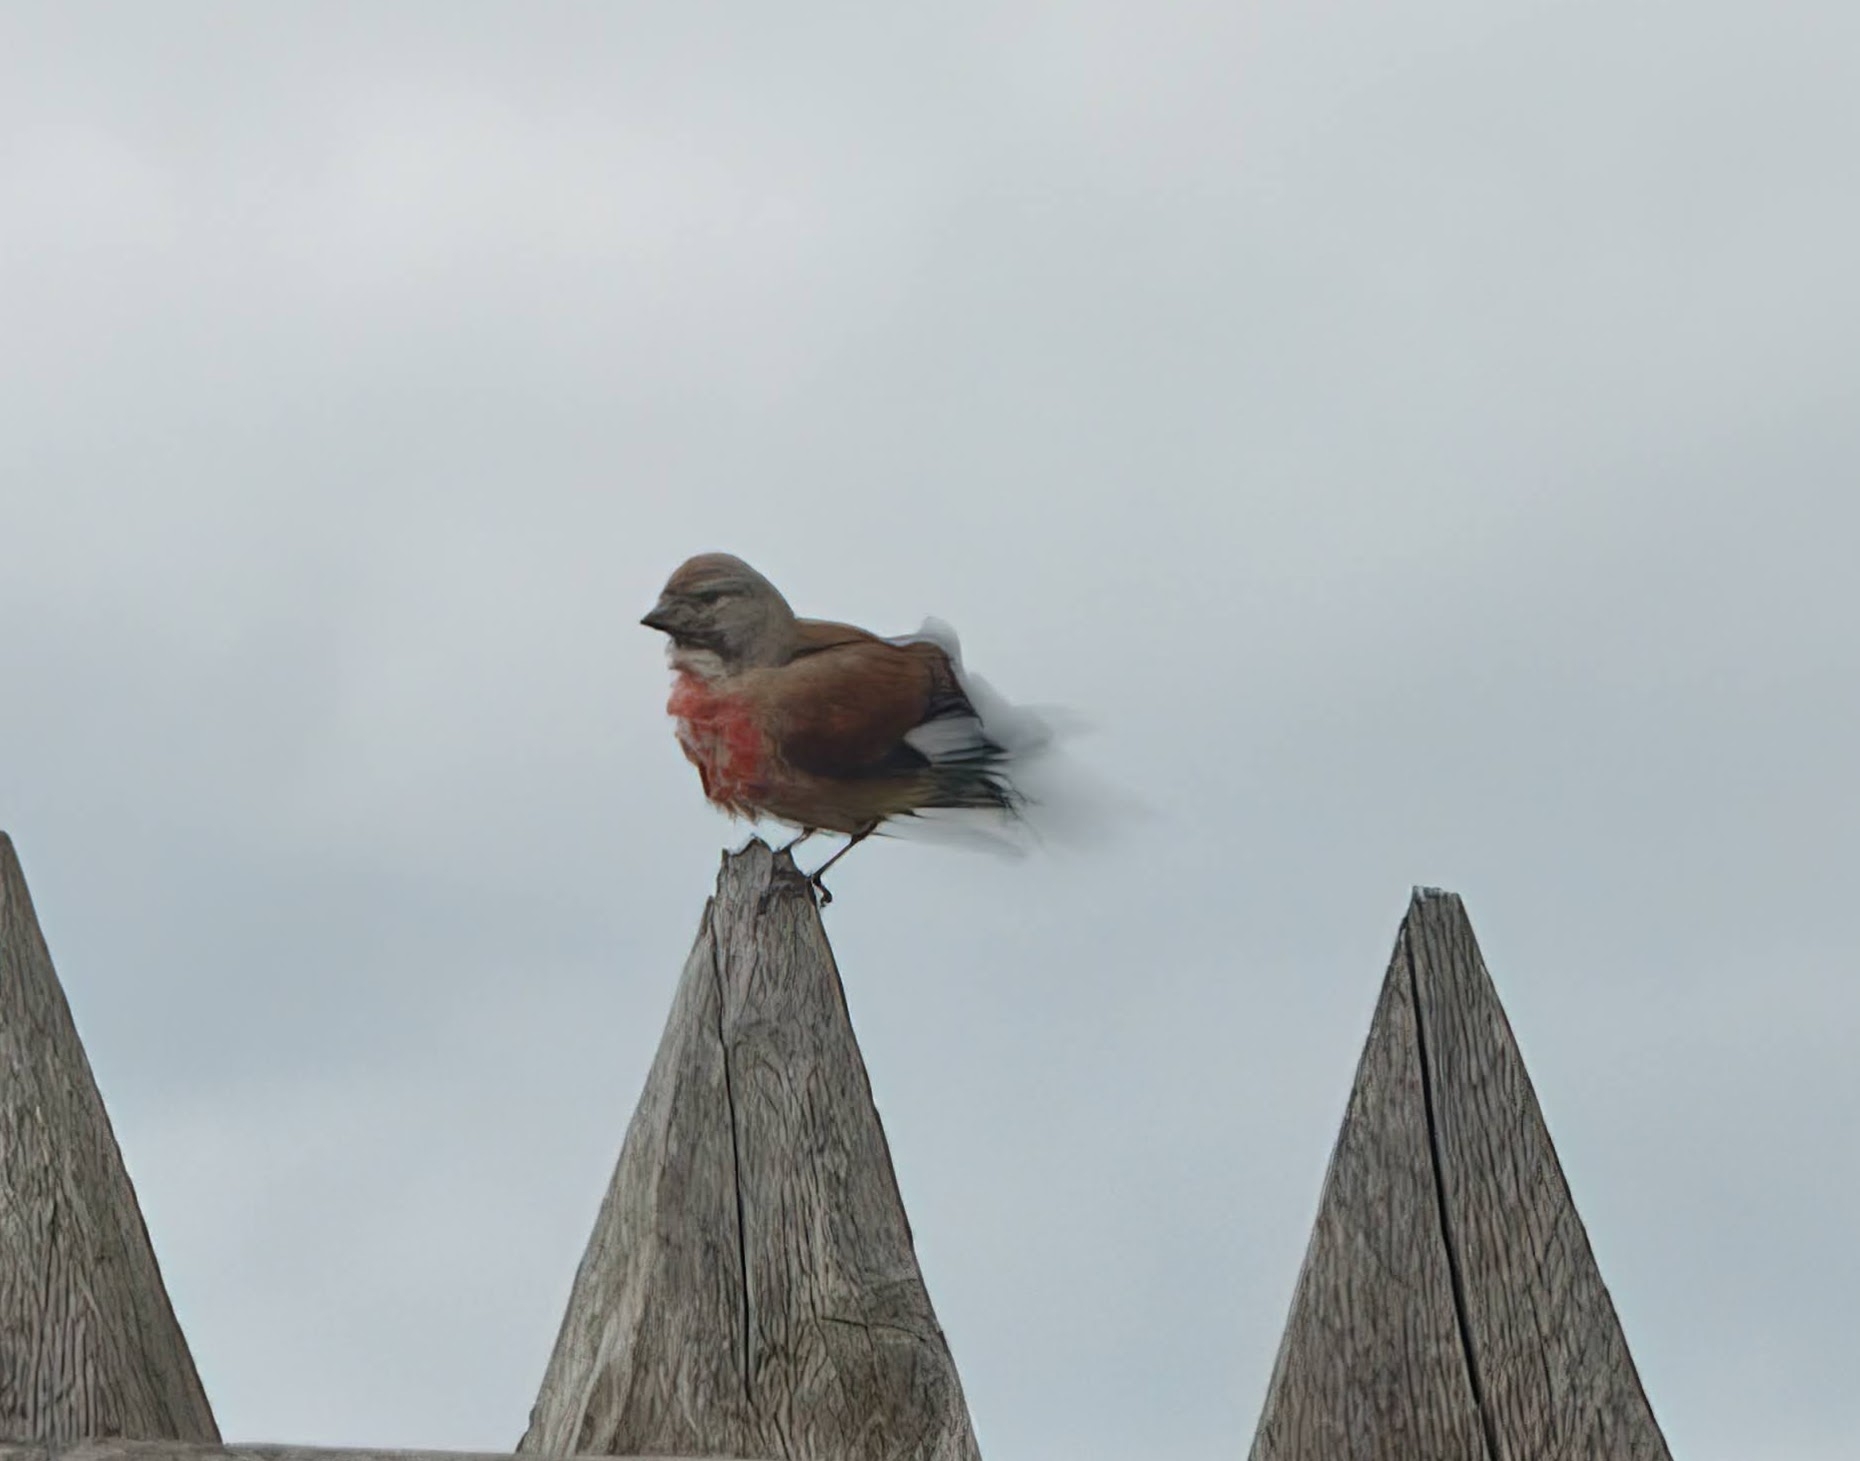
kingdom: Animalia
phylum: Chordata
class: Aves
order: Passeriformes
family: Fringillidae
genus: Linaria
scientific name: Linaria cannabina
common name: Common linnet
